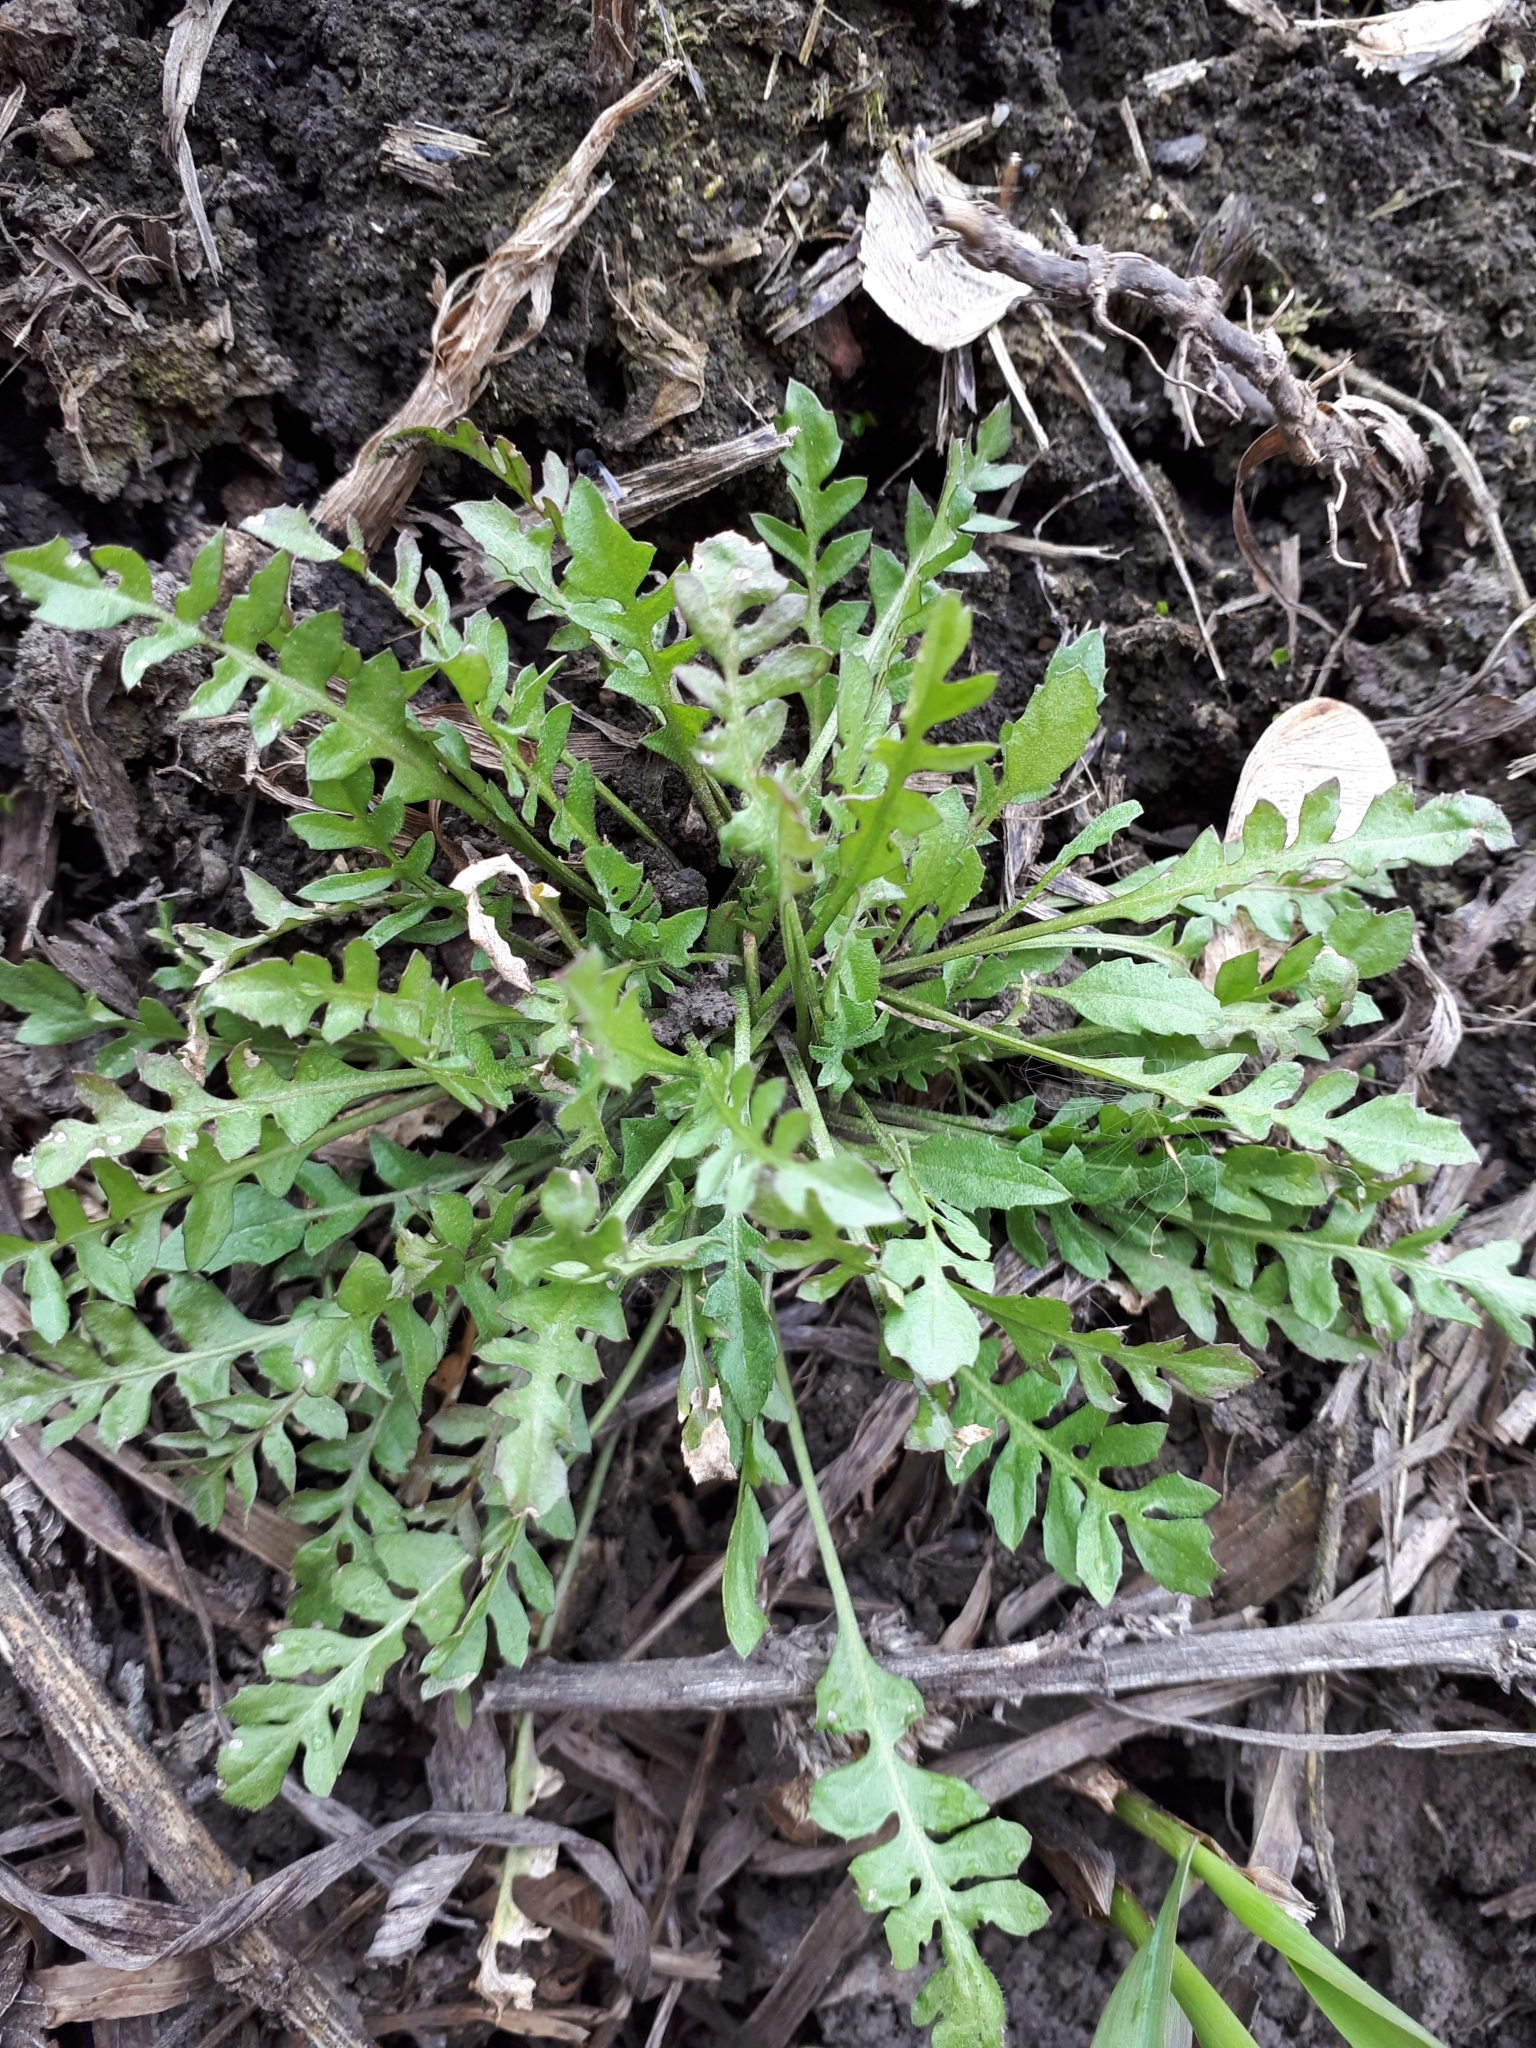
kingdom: Plantae
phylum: Tracheophyta
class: Magnoliopsida
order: Brassicales
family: Brassicaceae
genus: Capsella
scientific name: Capsella bursa-pastoris
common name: Shepherd's purse
